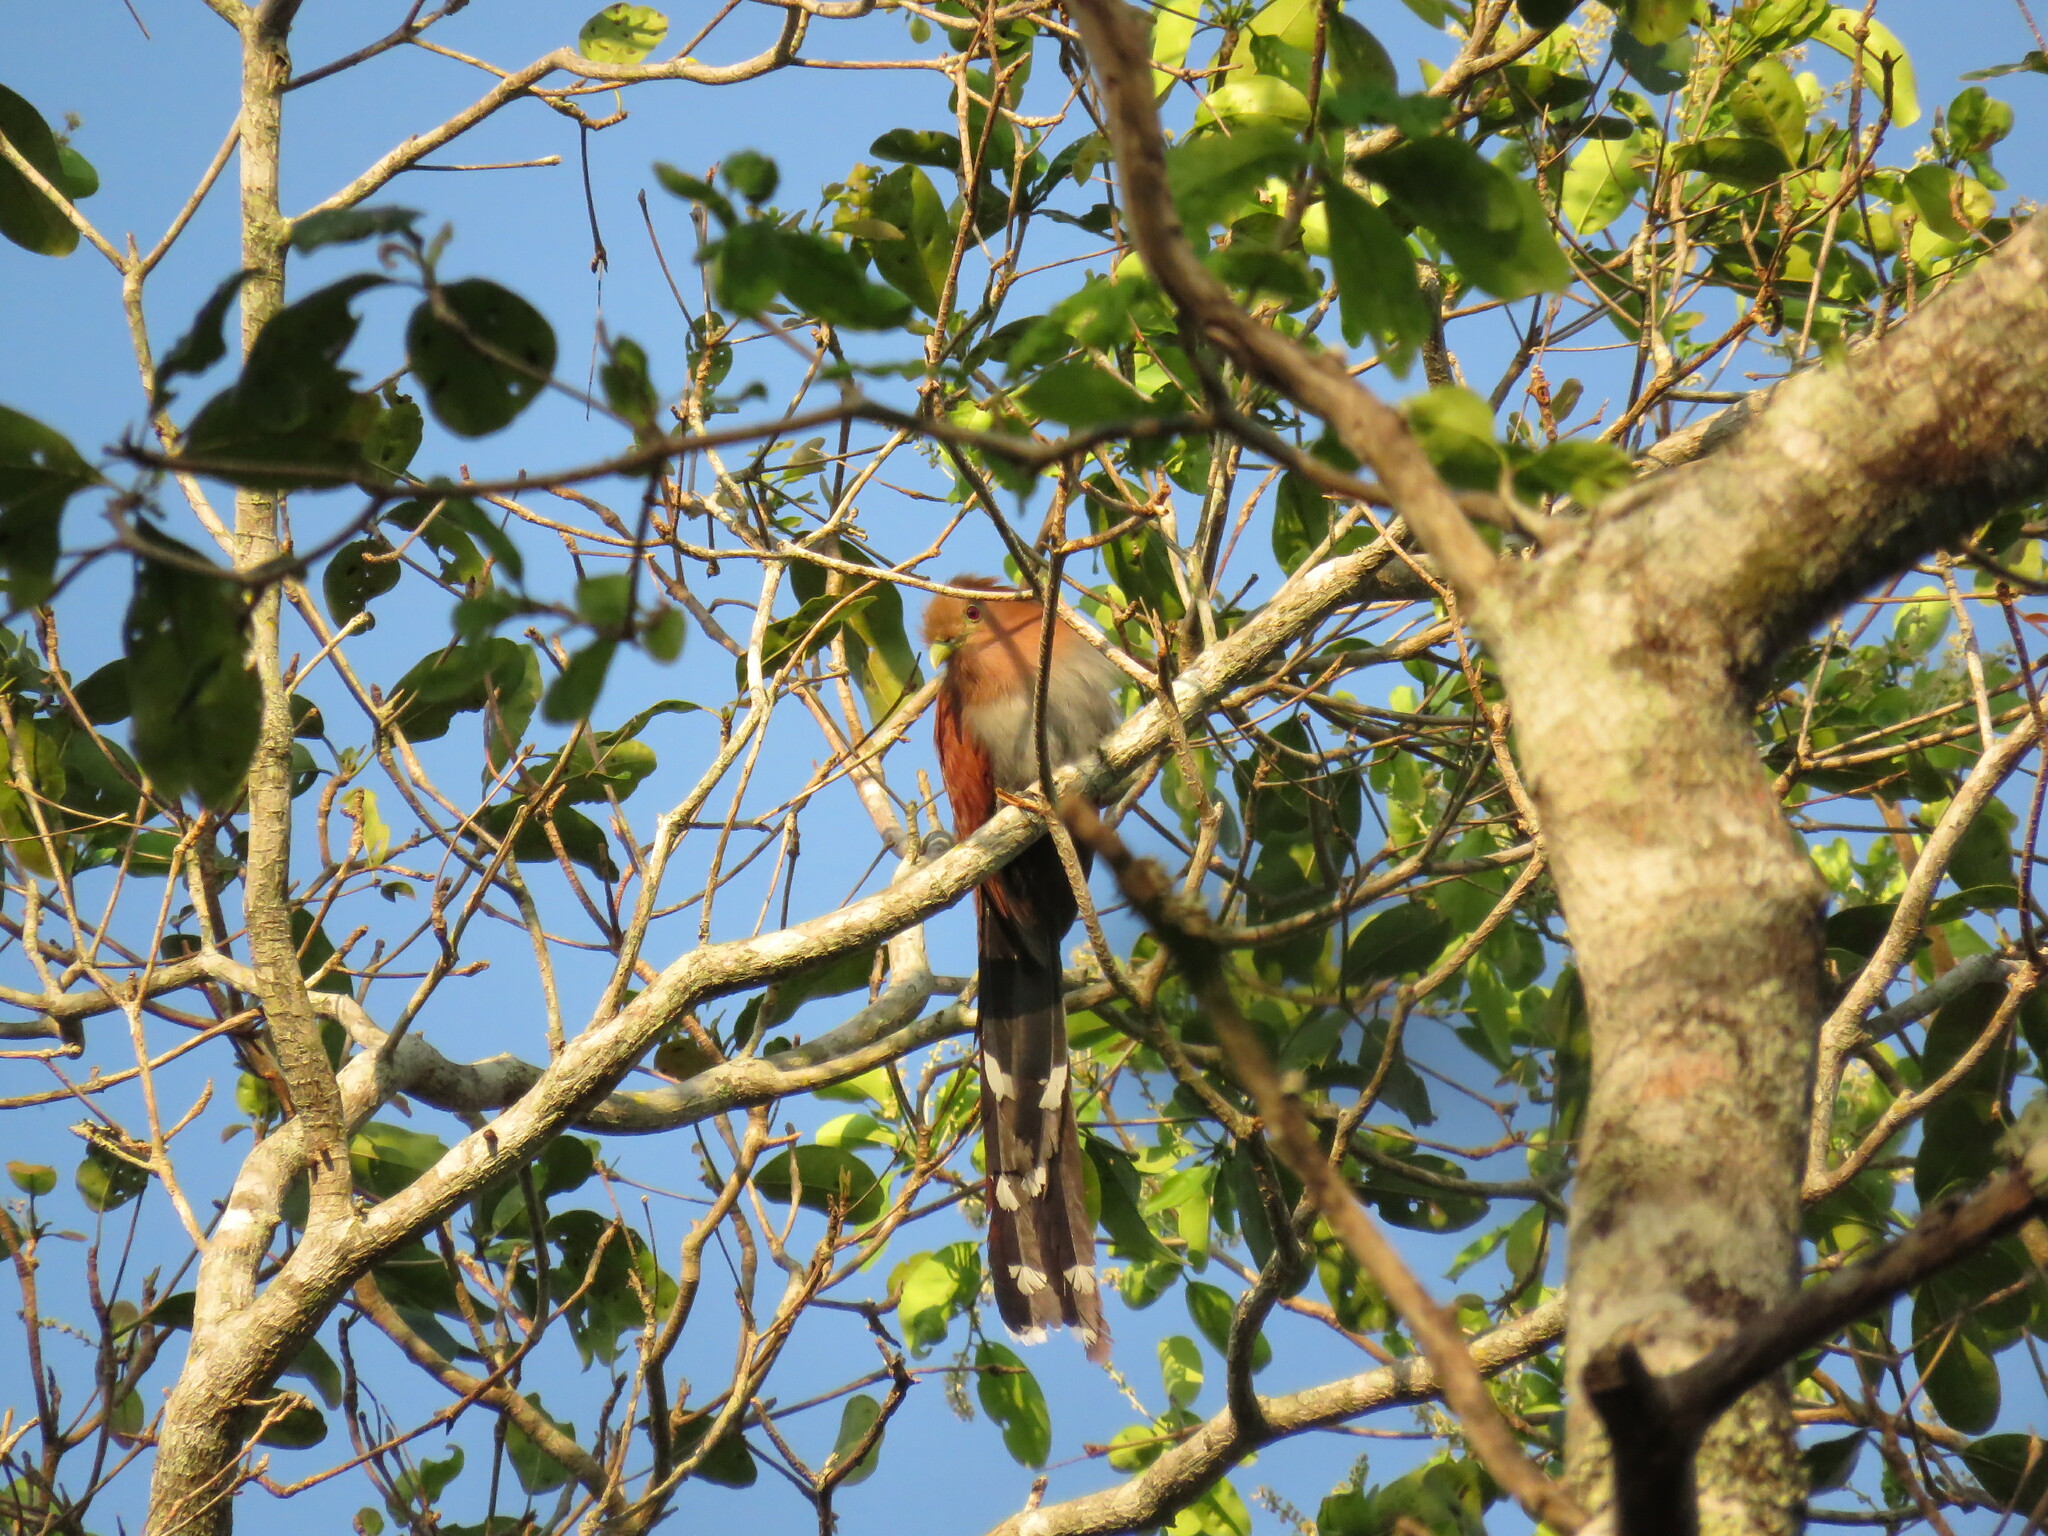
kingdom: Animalia
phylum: Chordata
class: Aves
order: Cuculiformes
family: Cuculidae
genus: Piaya
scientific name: Piaya cayana
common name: Squirrel cuckoo
